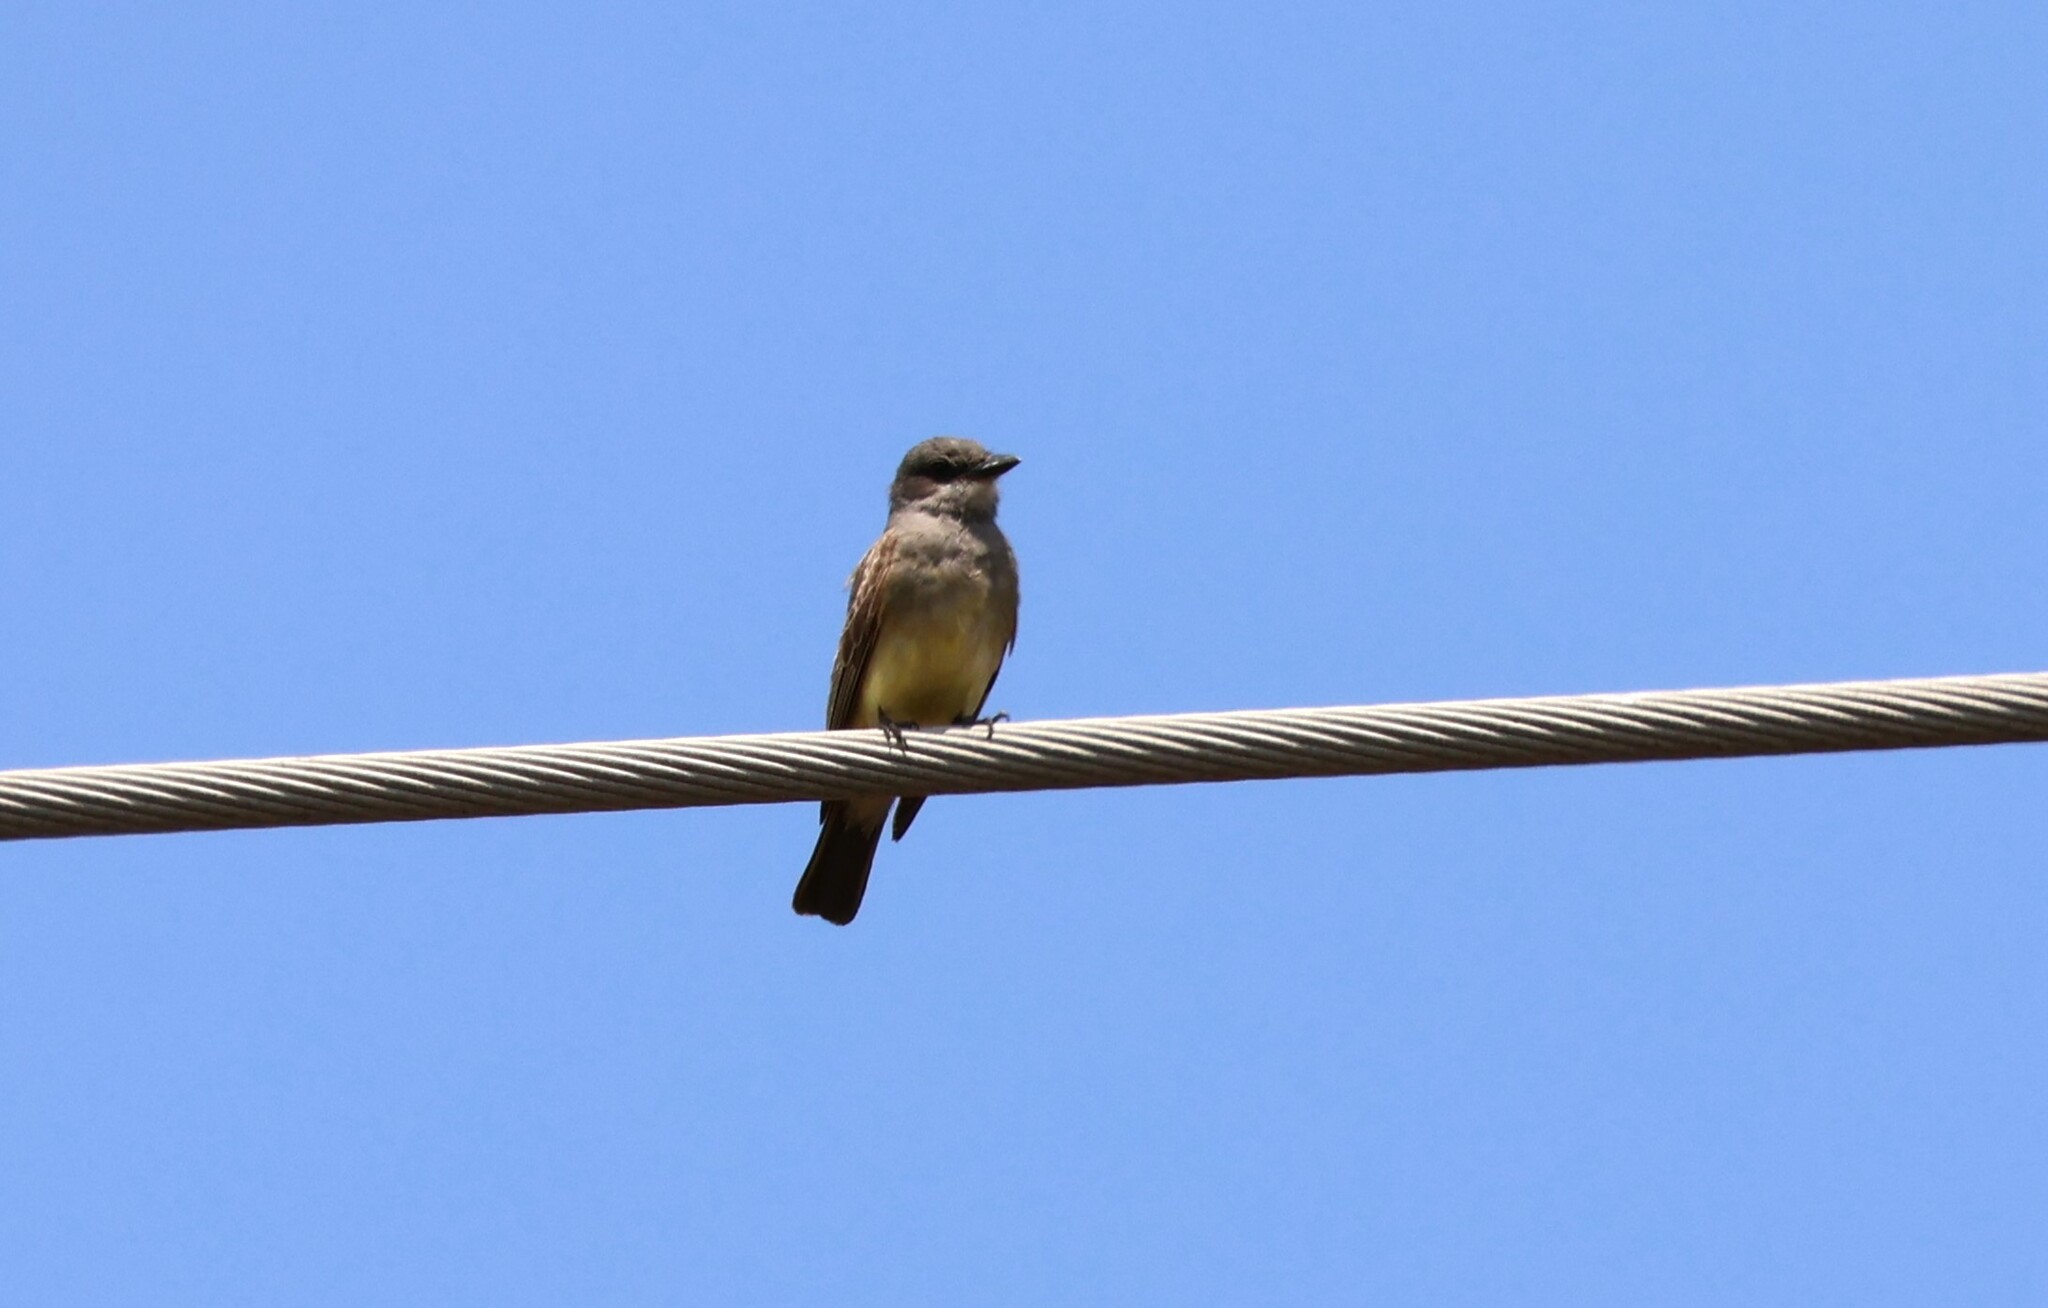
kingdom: Animalia
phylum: Chordata
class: Aves
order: Passeriformes
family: Tyrannidae
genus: Tyrannus
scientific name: Tyrannus vociferans
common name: Cassin's kingbird
